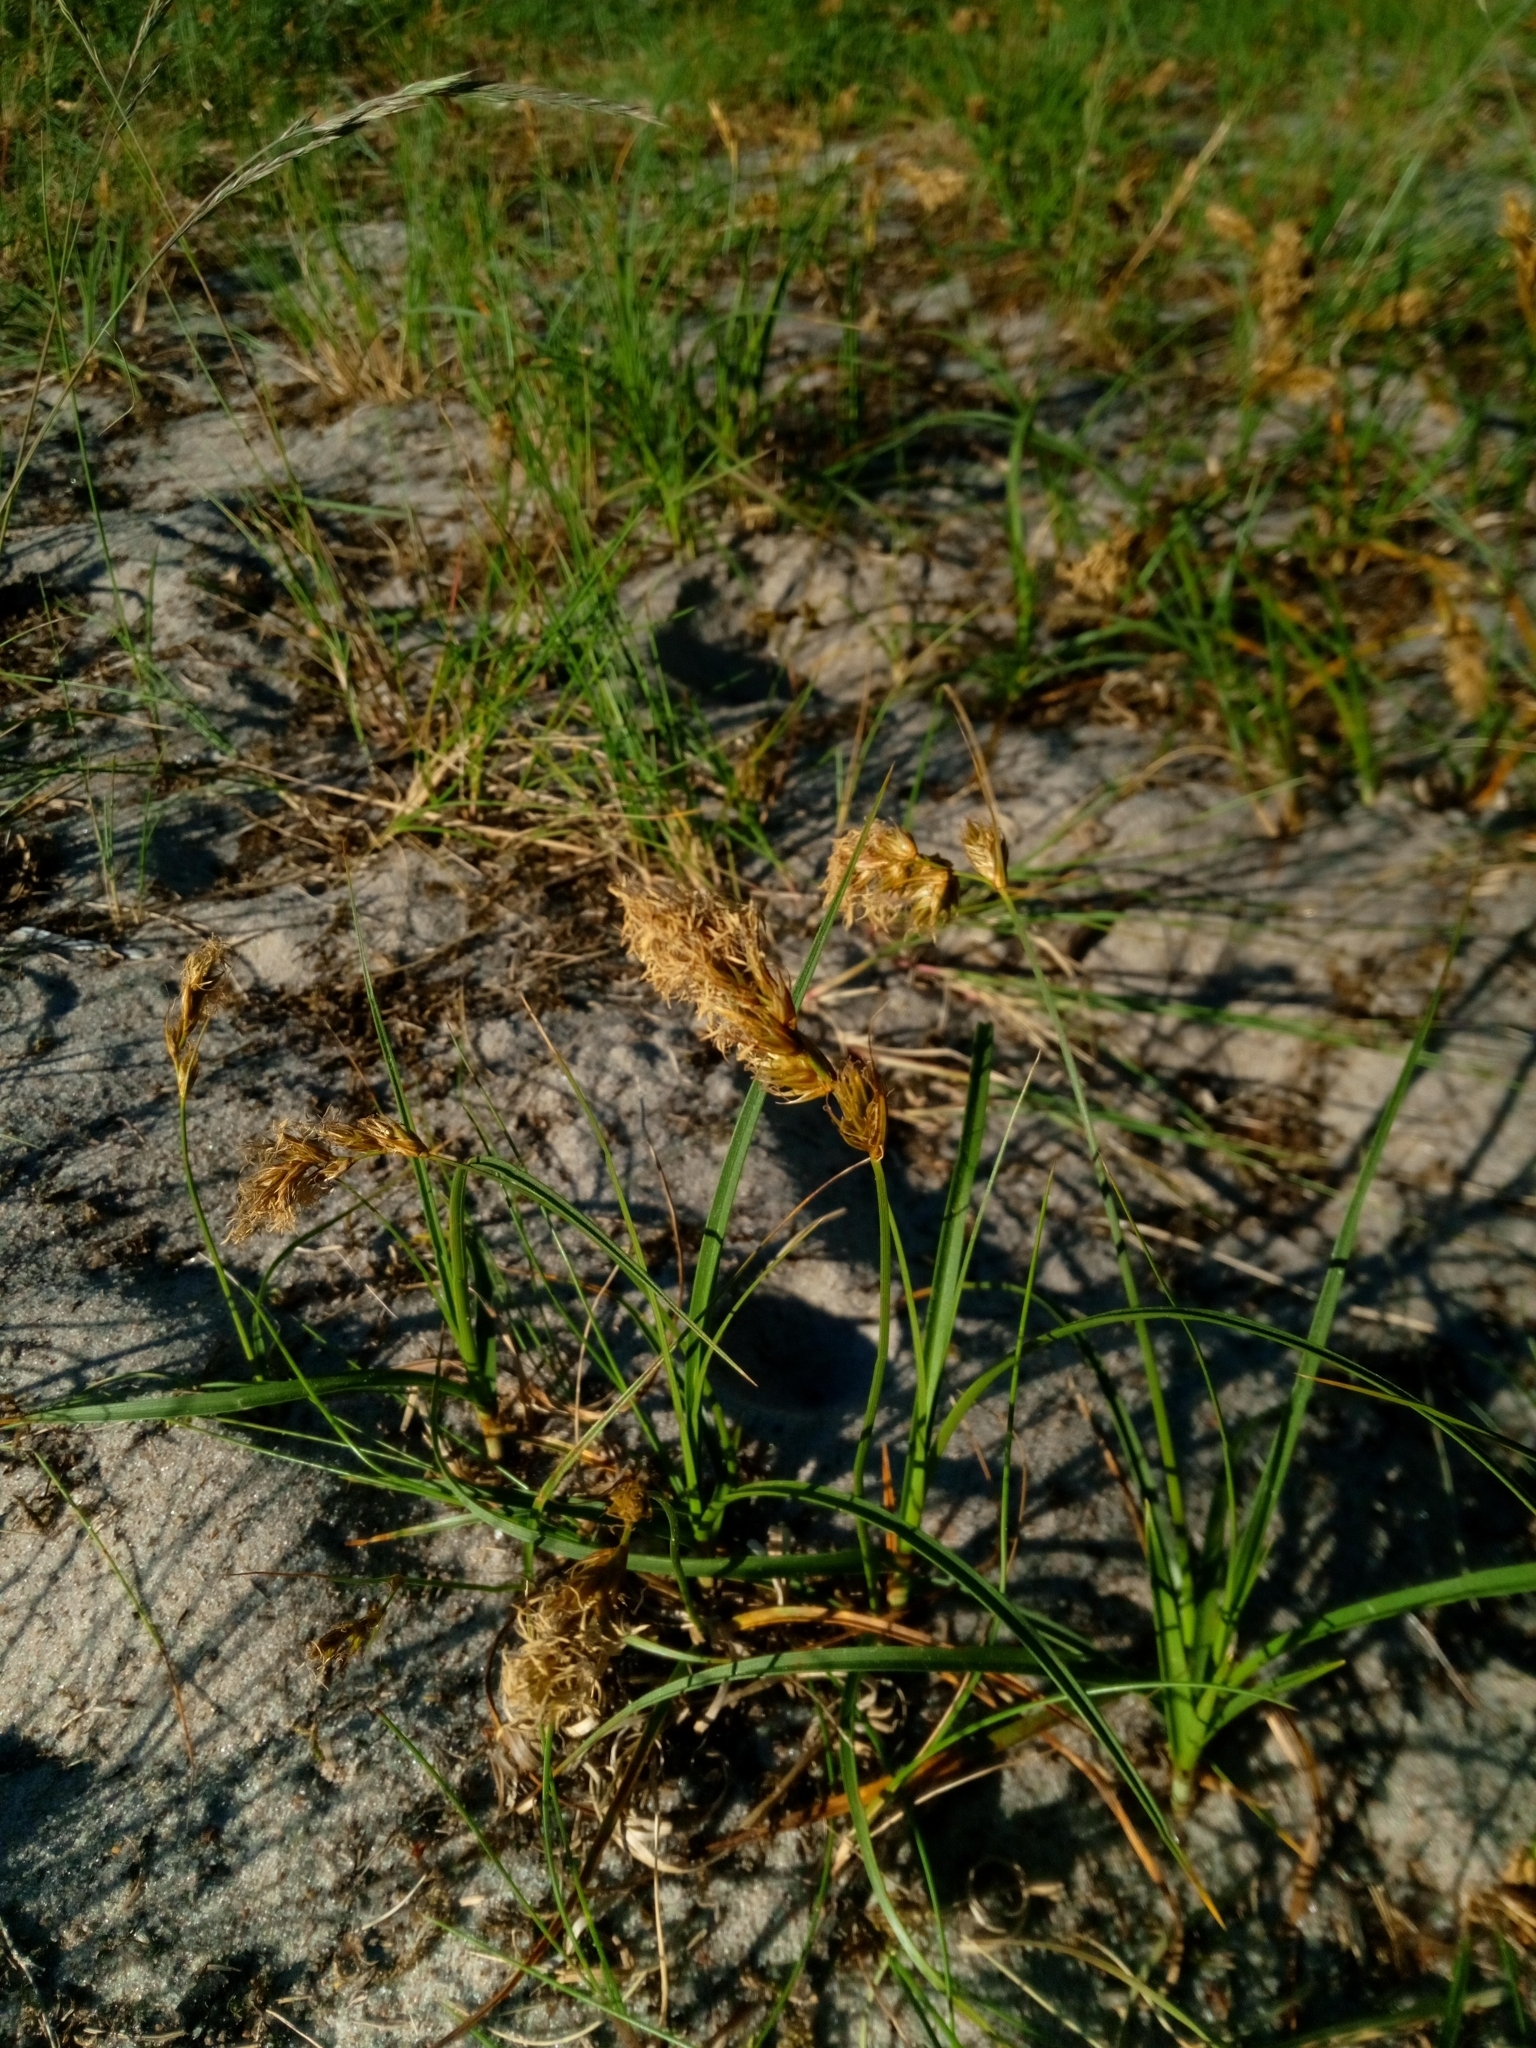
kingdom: Plantae
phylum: Tracheophyta
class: Liliopsida
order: Poales
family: Cyperaceae
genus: Carex
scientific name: Carex arenaria
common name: Sand sedge
